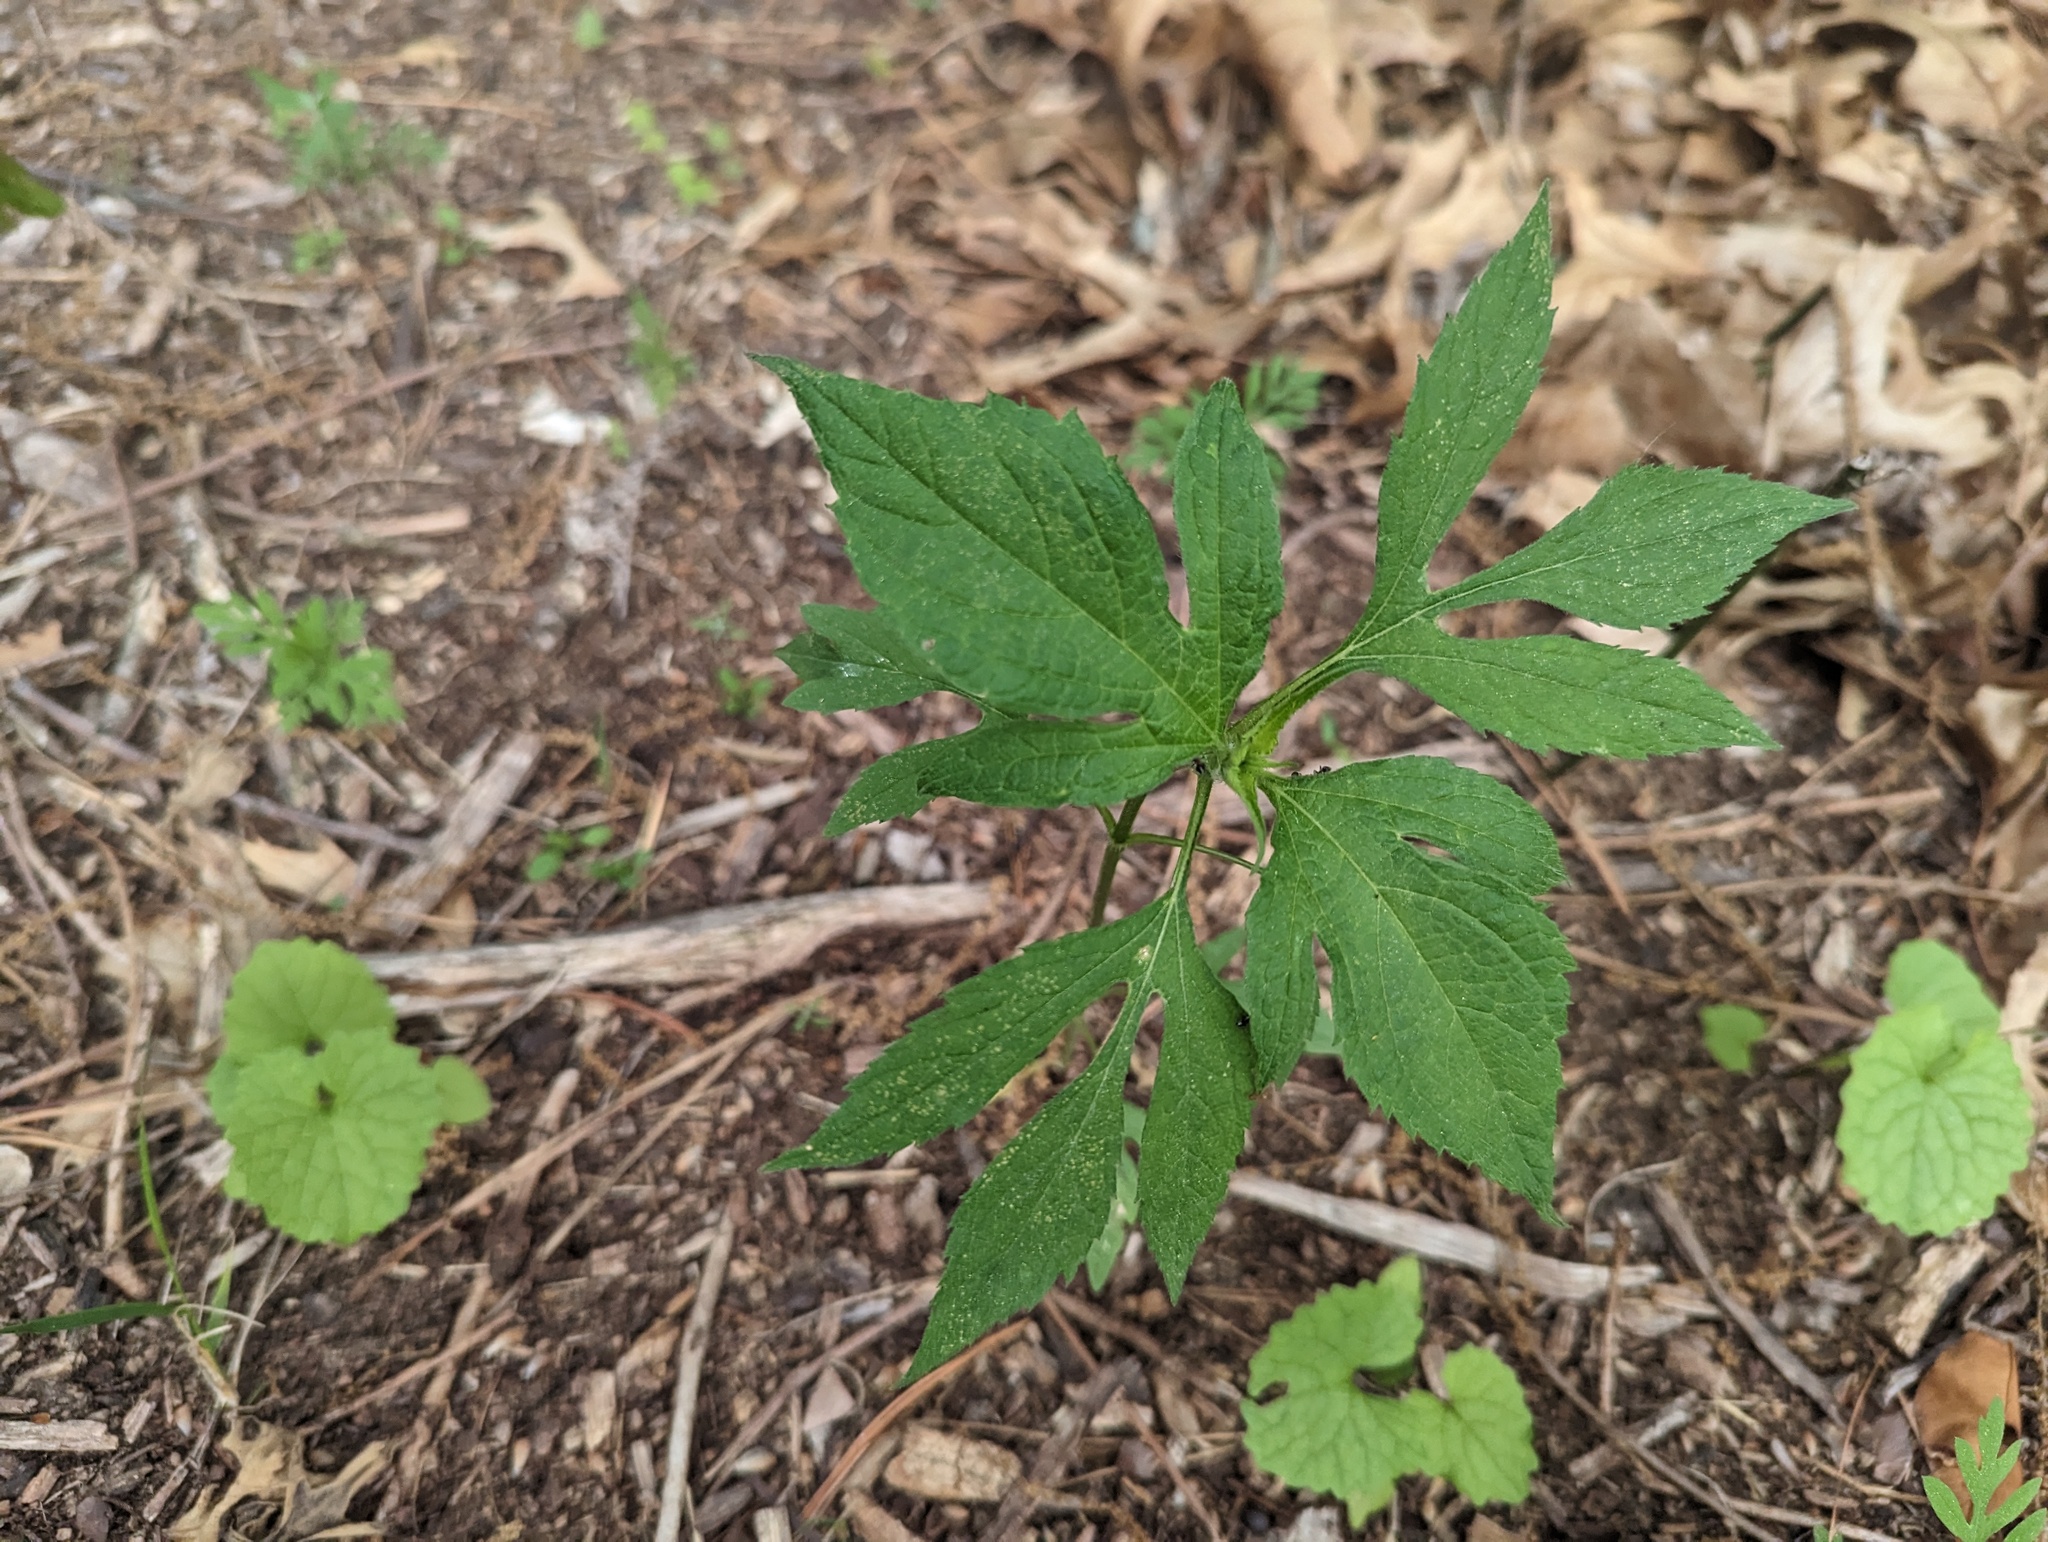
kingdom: Plantae
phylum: Tracheophyta
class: Magnoliopsida
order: Asterales
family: Asteraceae
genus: Ambrosia
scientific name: Ambrosia trifida
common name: Giant ragweed
